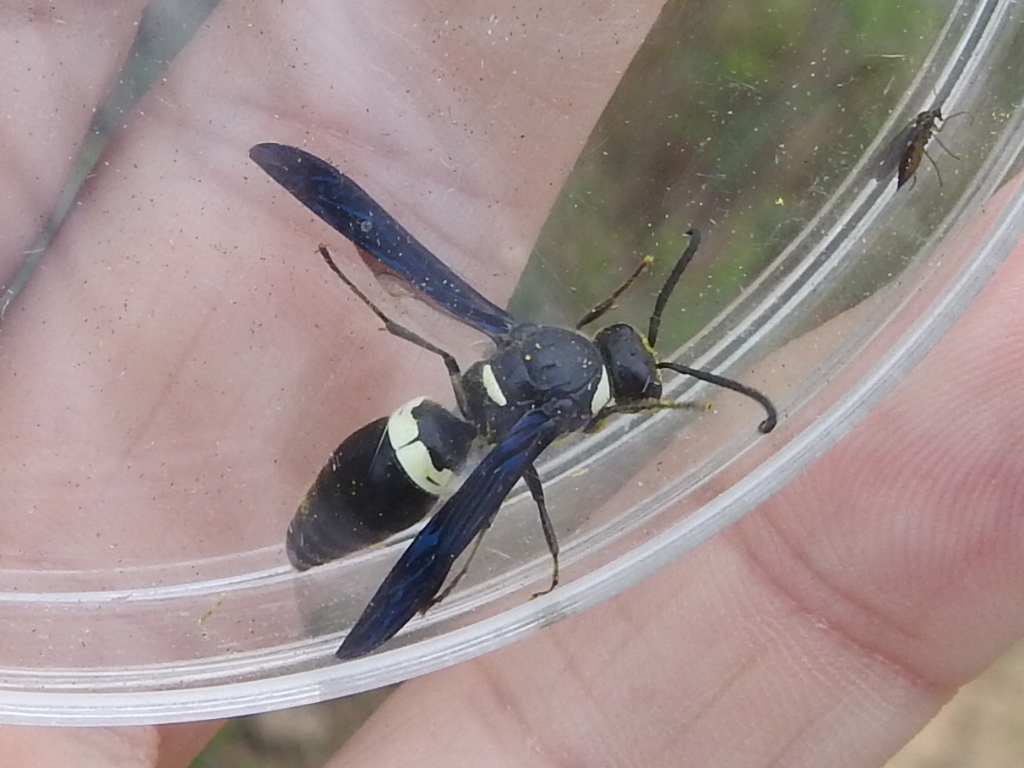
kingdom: Animalia
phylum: Arthropoda
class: Insecta
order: Hymenoptera
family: Eumenidae
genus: Monobia
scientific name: Monobia quadridens
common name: Four-toothed mason wasp
